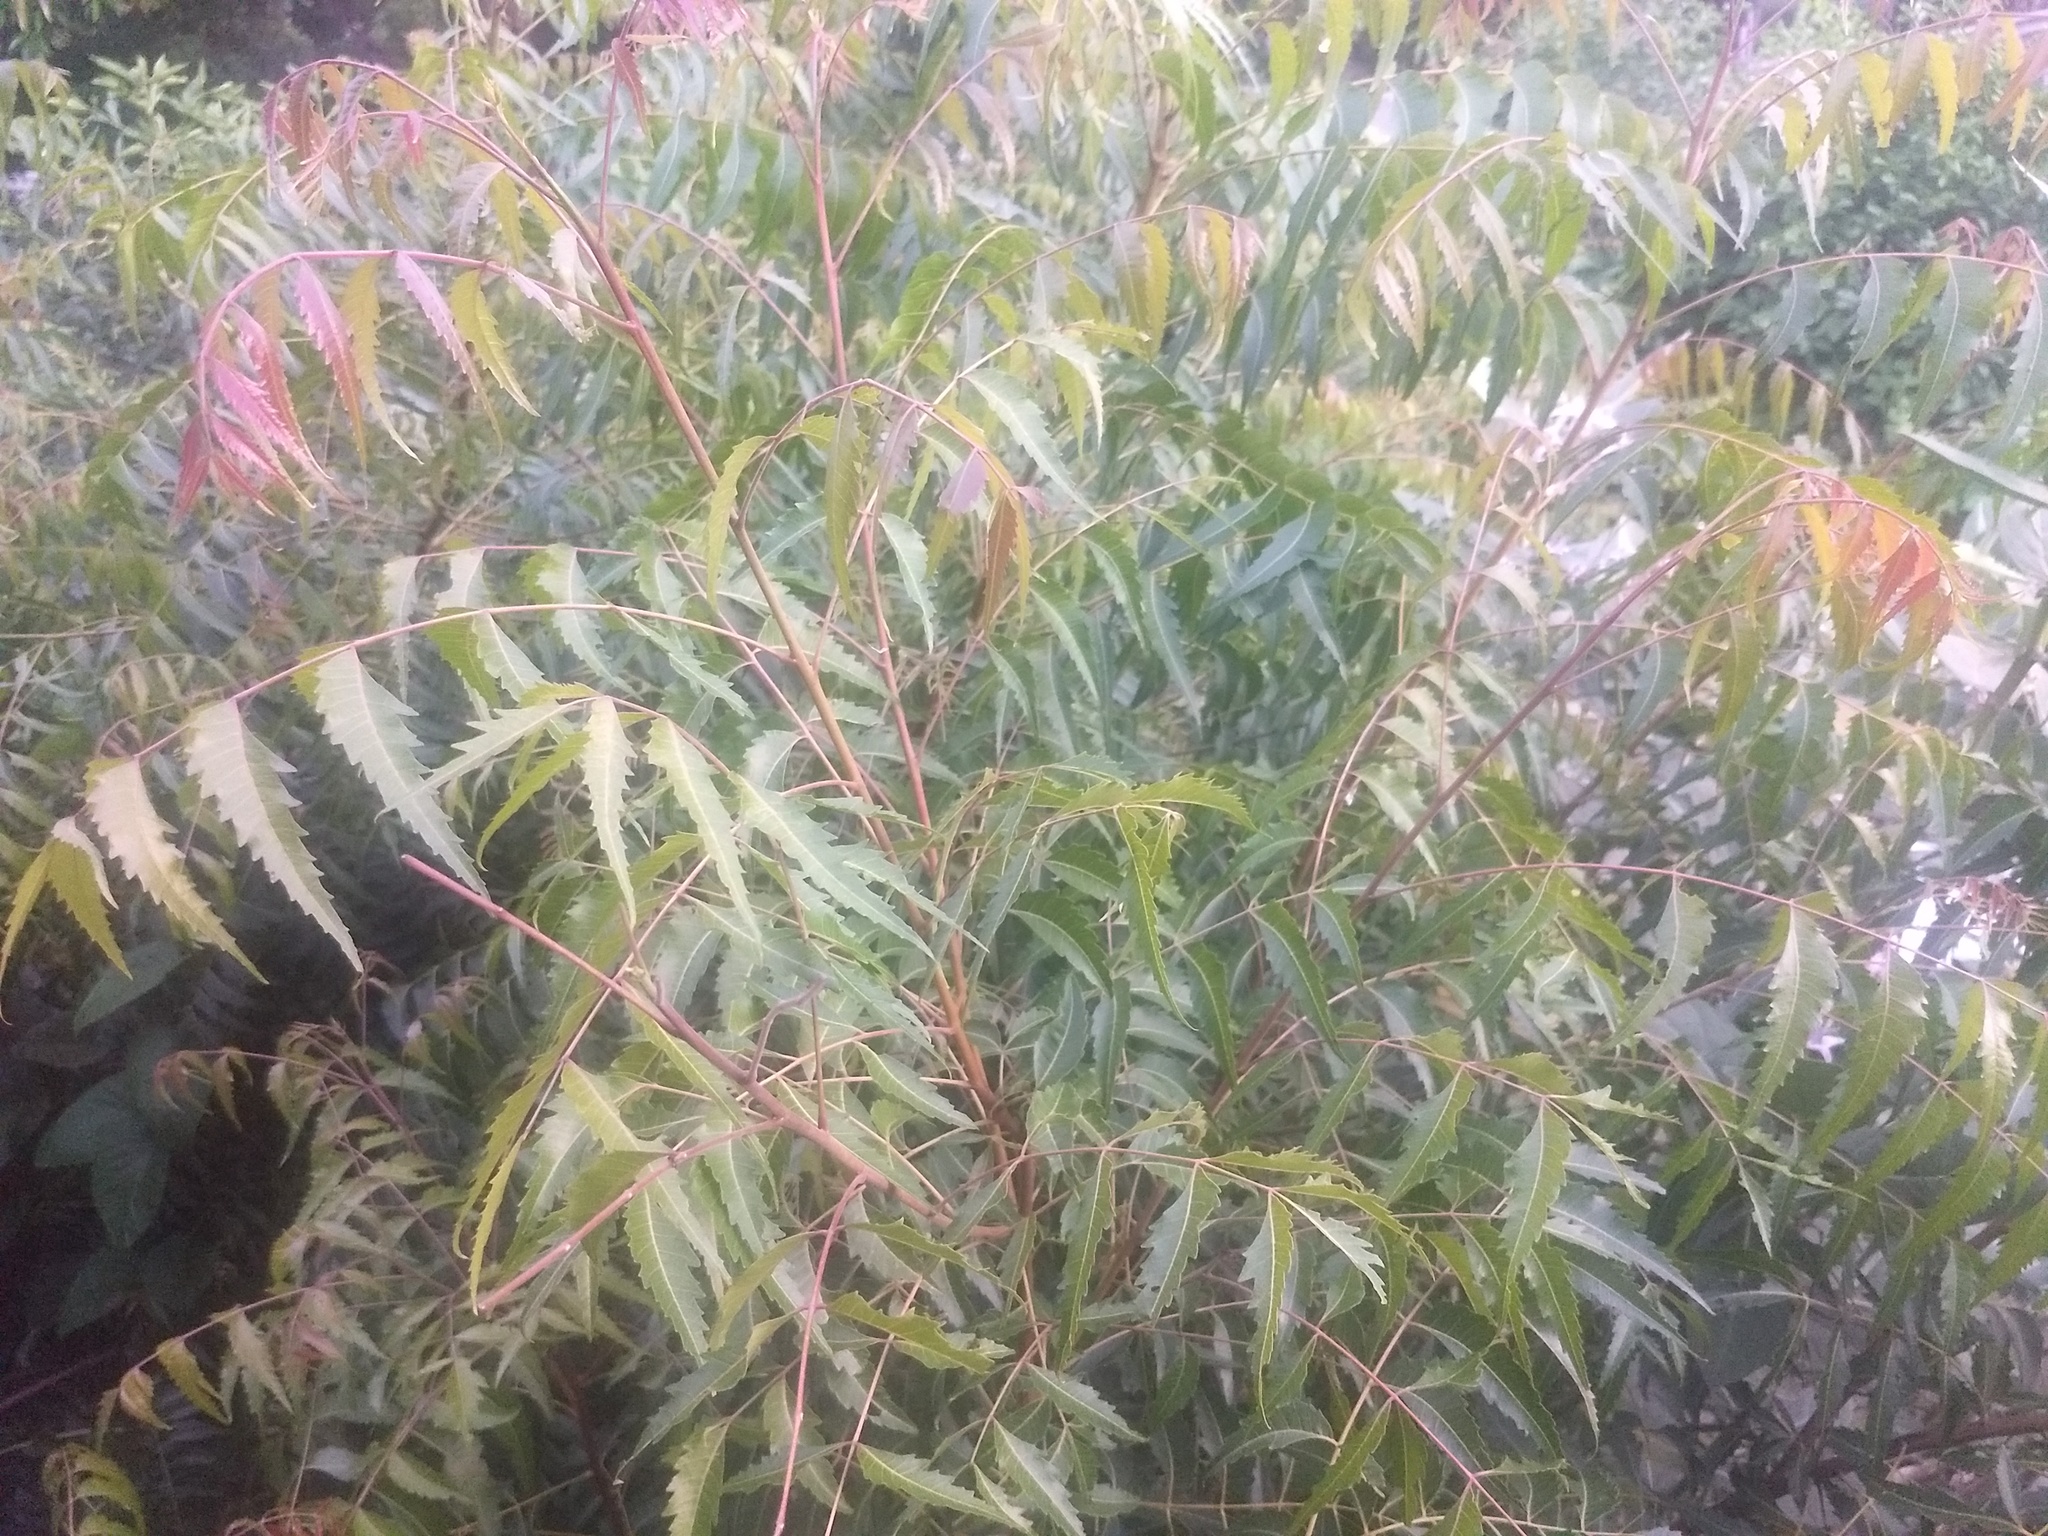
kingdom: Plantae
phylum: Tracheophyta
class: Magnoliopsida
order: Sapindales
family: Meliaceae
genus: Azadirachta
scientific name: Azadirachta indica
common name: Neem
